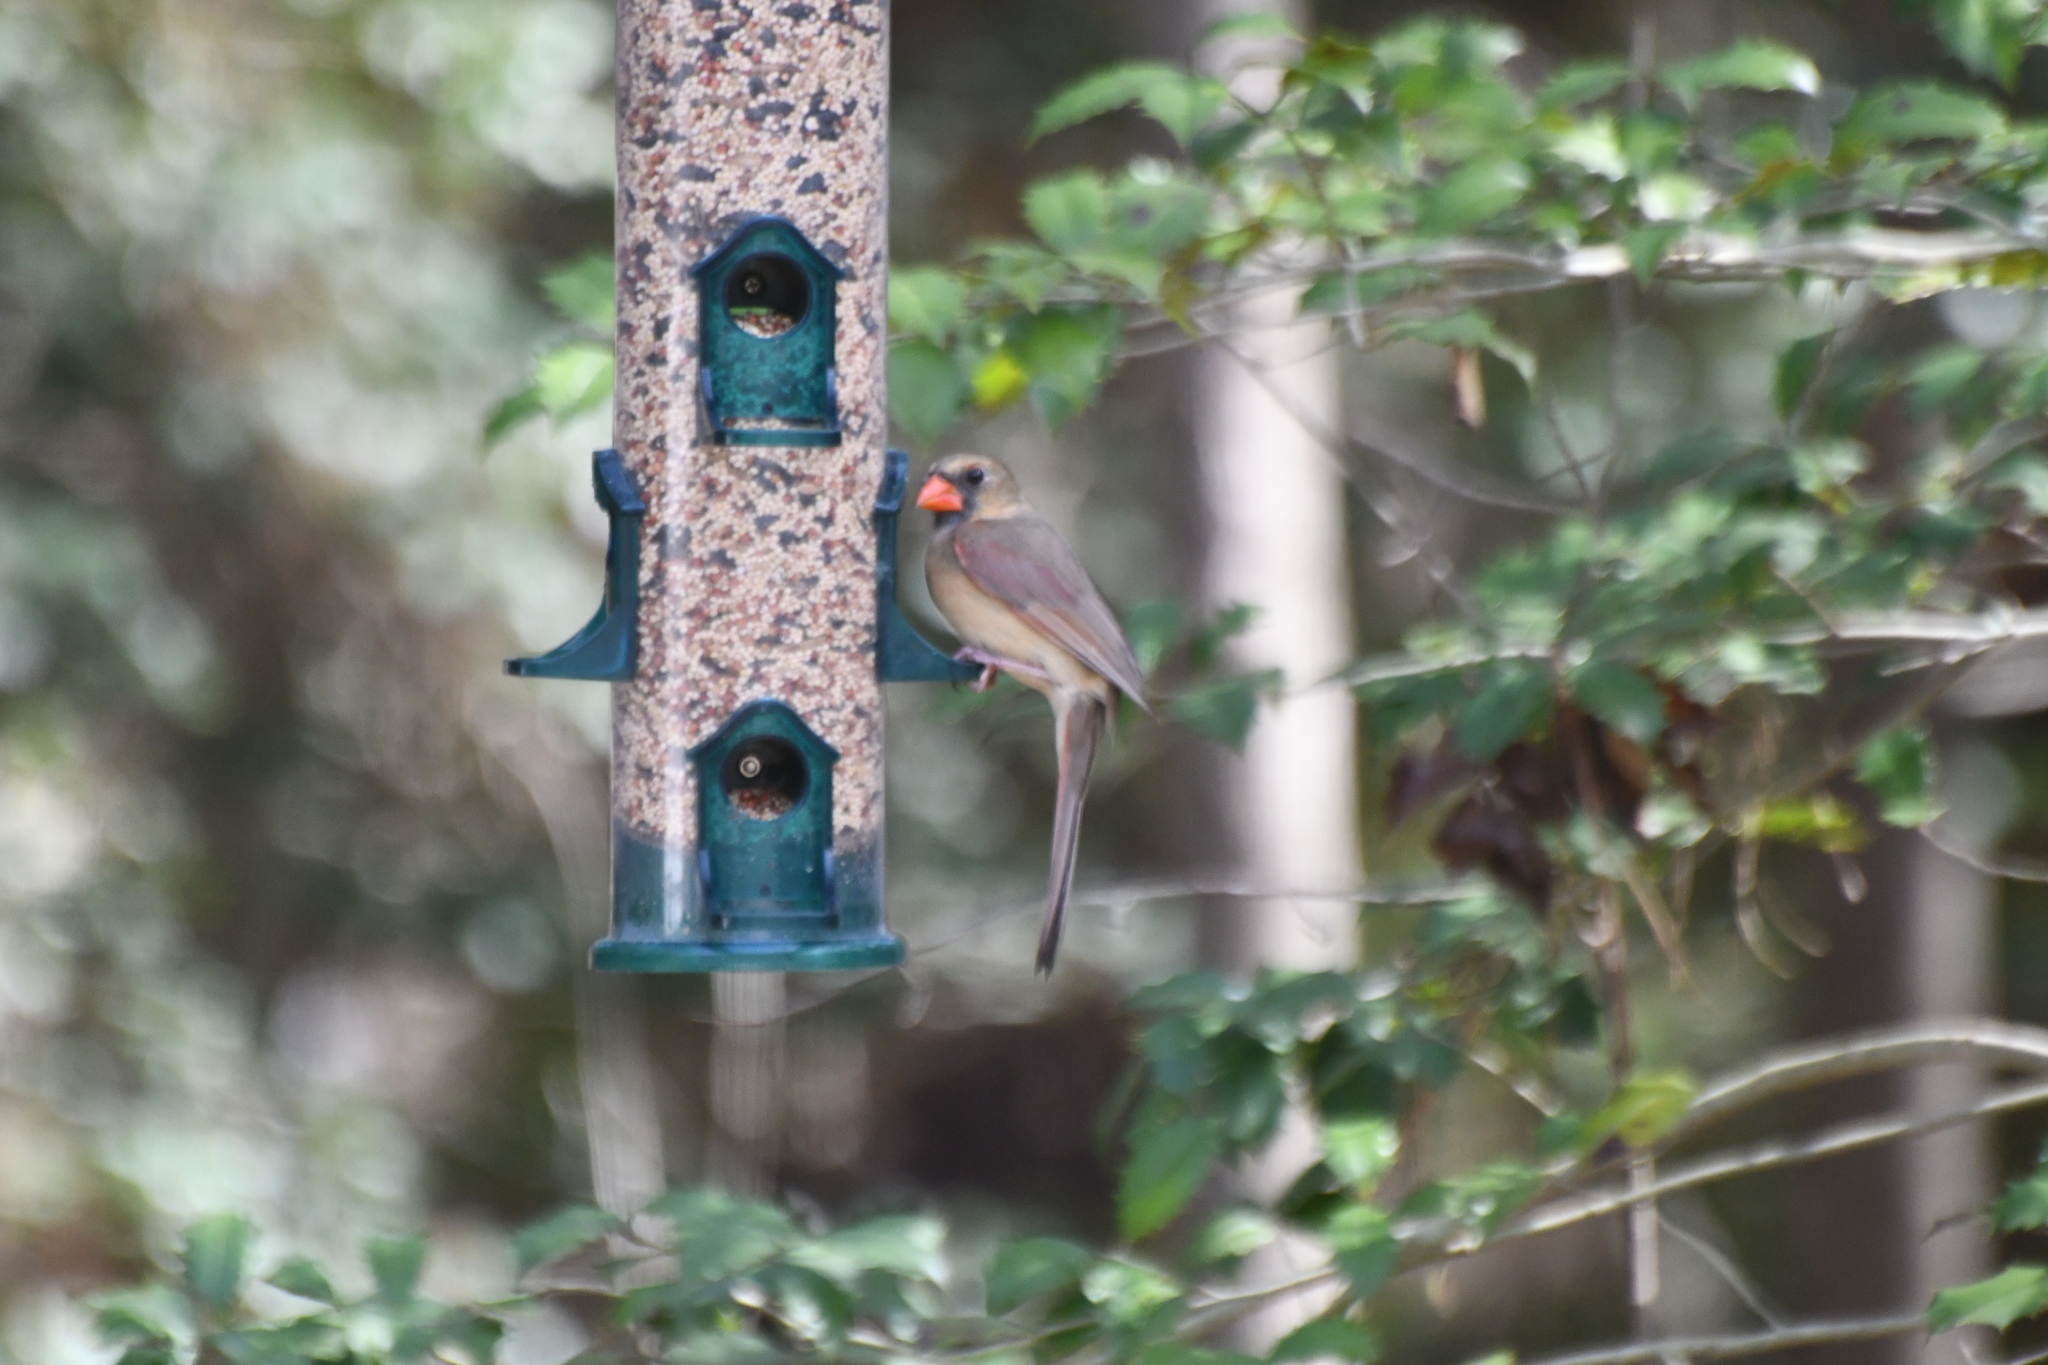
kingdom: Animalia
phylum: Chordata
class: Aves
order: Passeriformes
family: Cardinalidae
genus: Cardinalis
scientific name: Cardinalis cardinalis
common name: Northern cardinal
